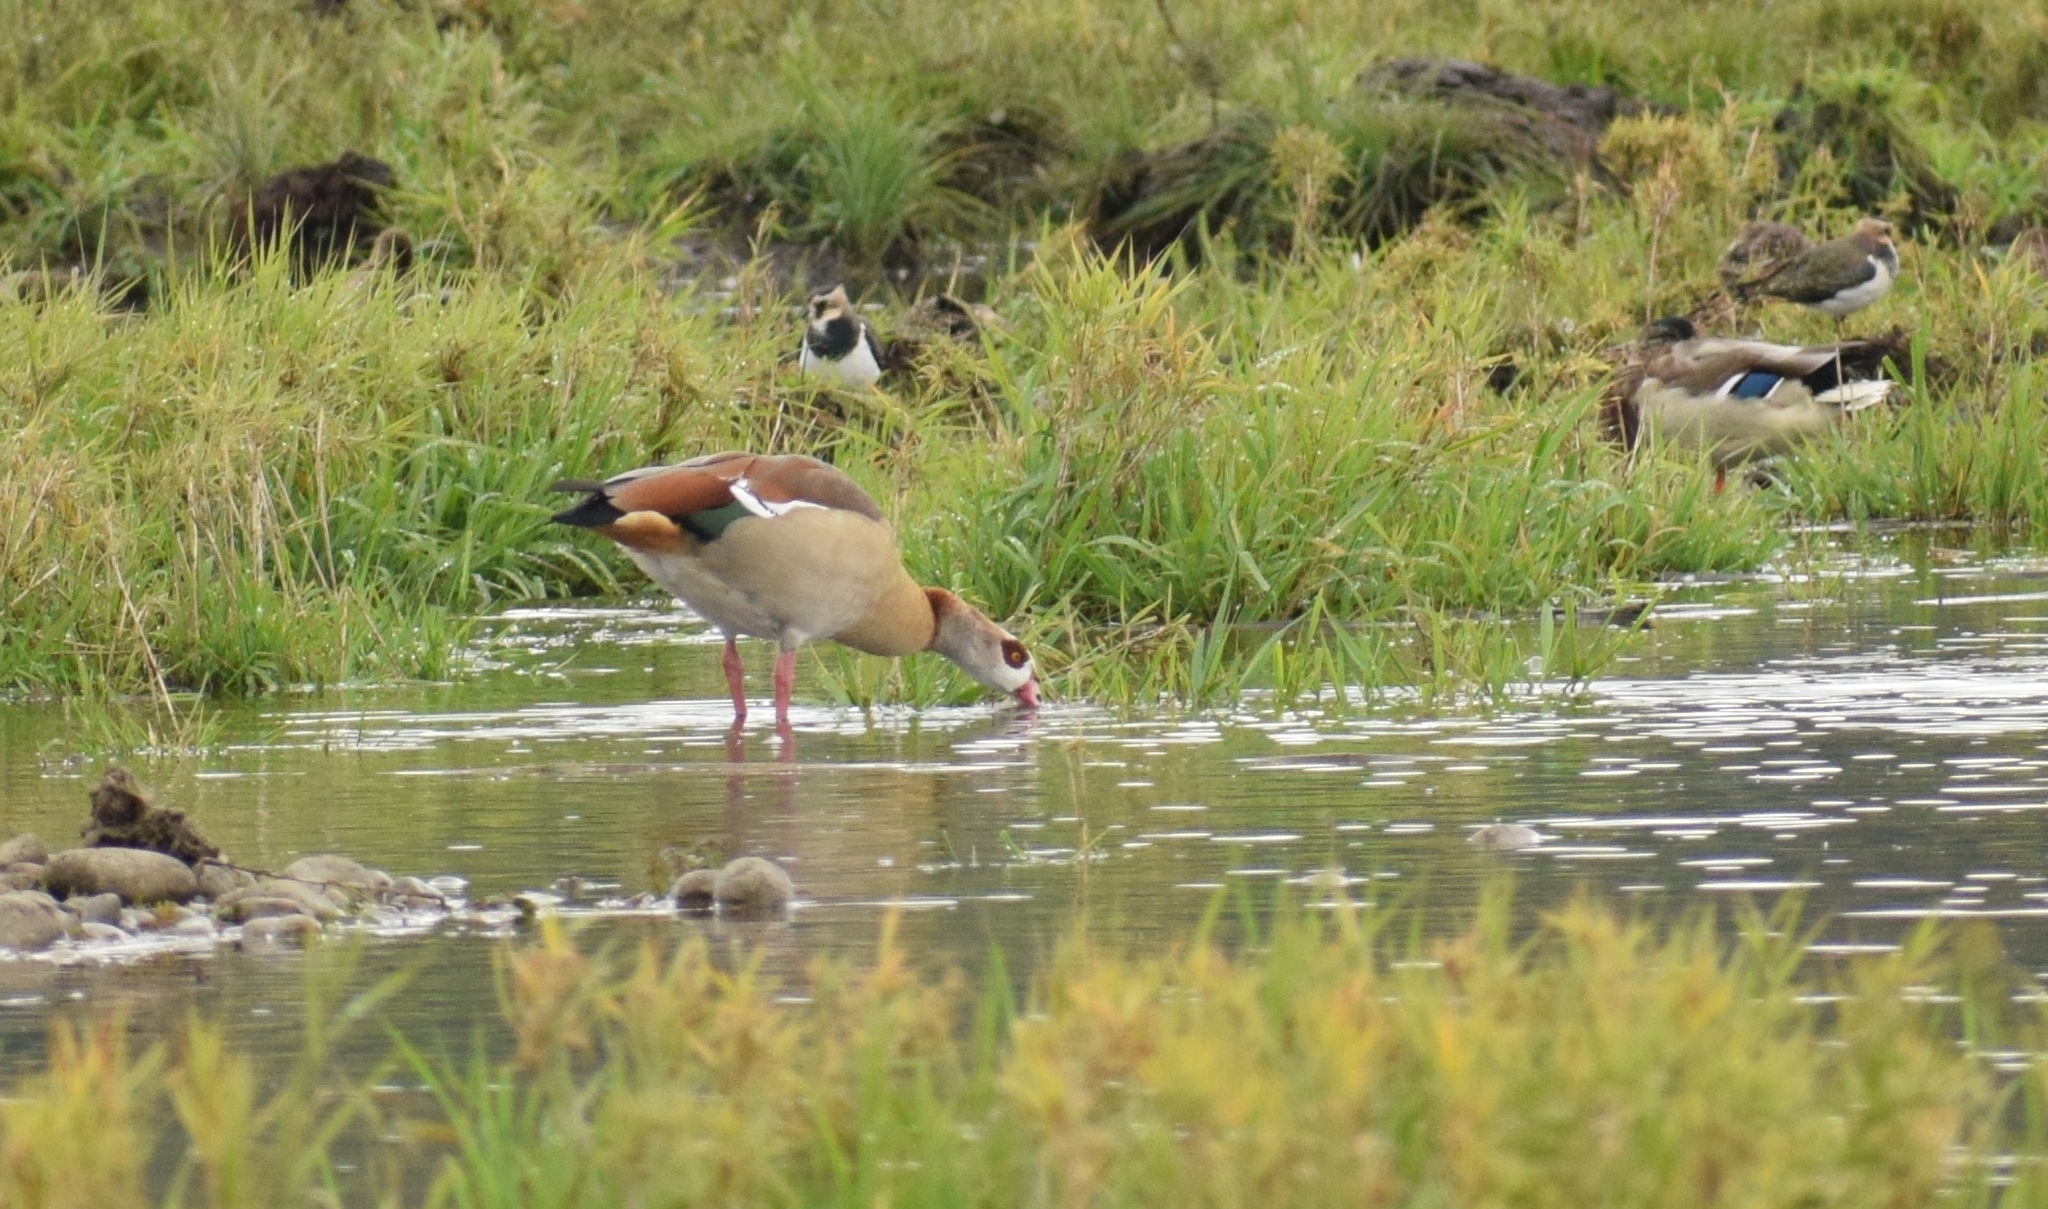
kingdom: Animalia
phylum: Chordata
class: Aves
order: Anseriformes
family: Anatidae
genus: Alopochen
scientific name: Alopochen aegyptiaca
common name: Egyptian goose
